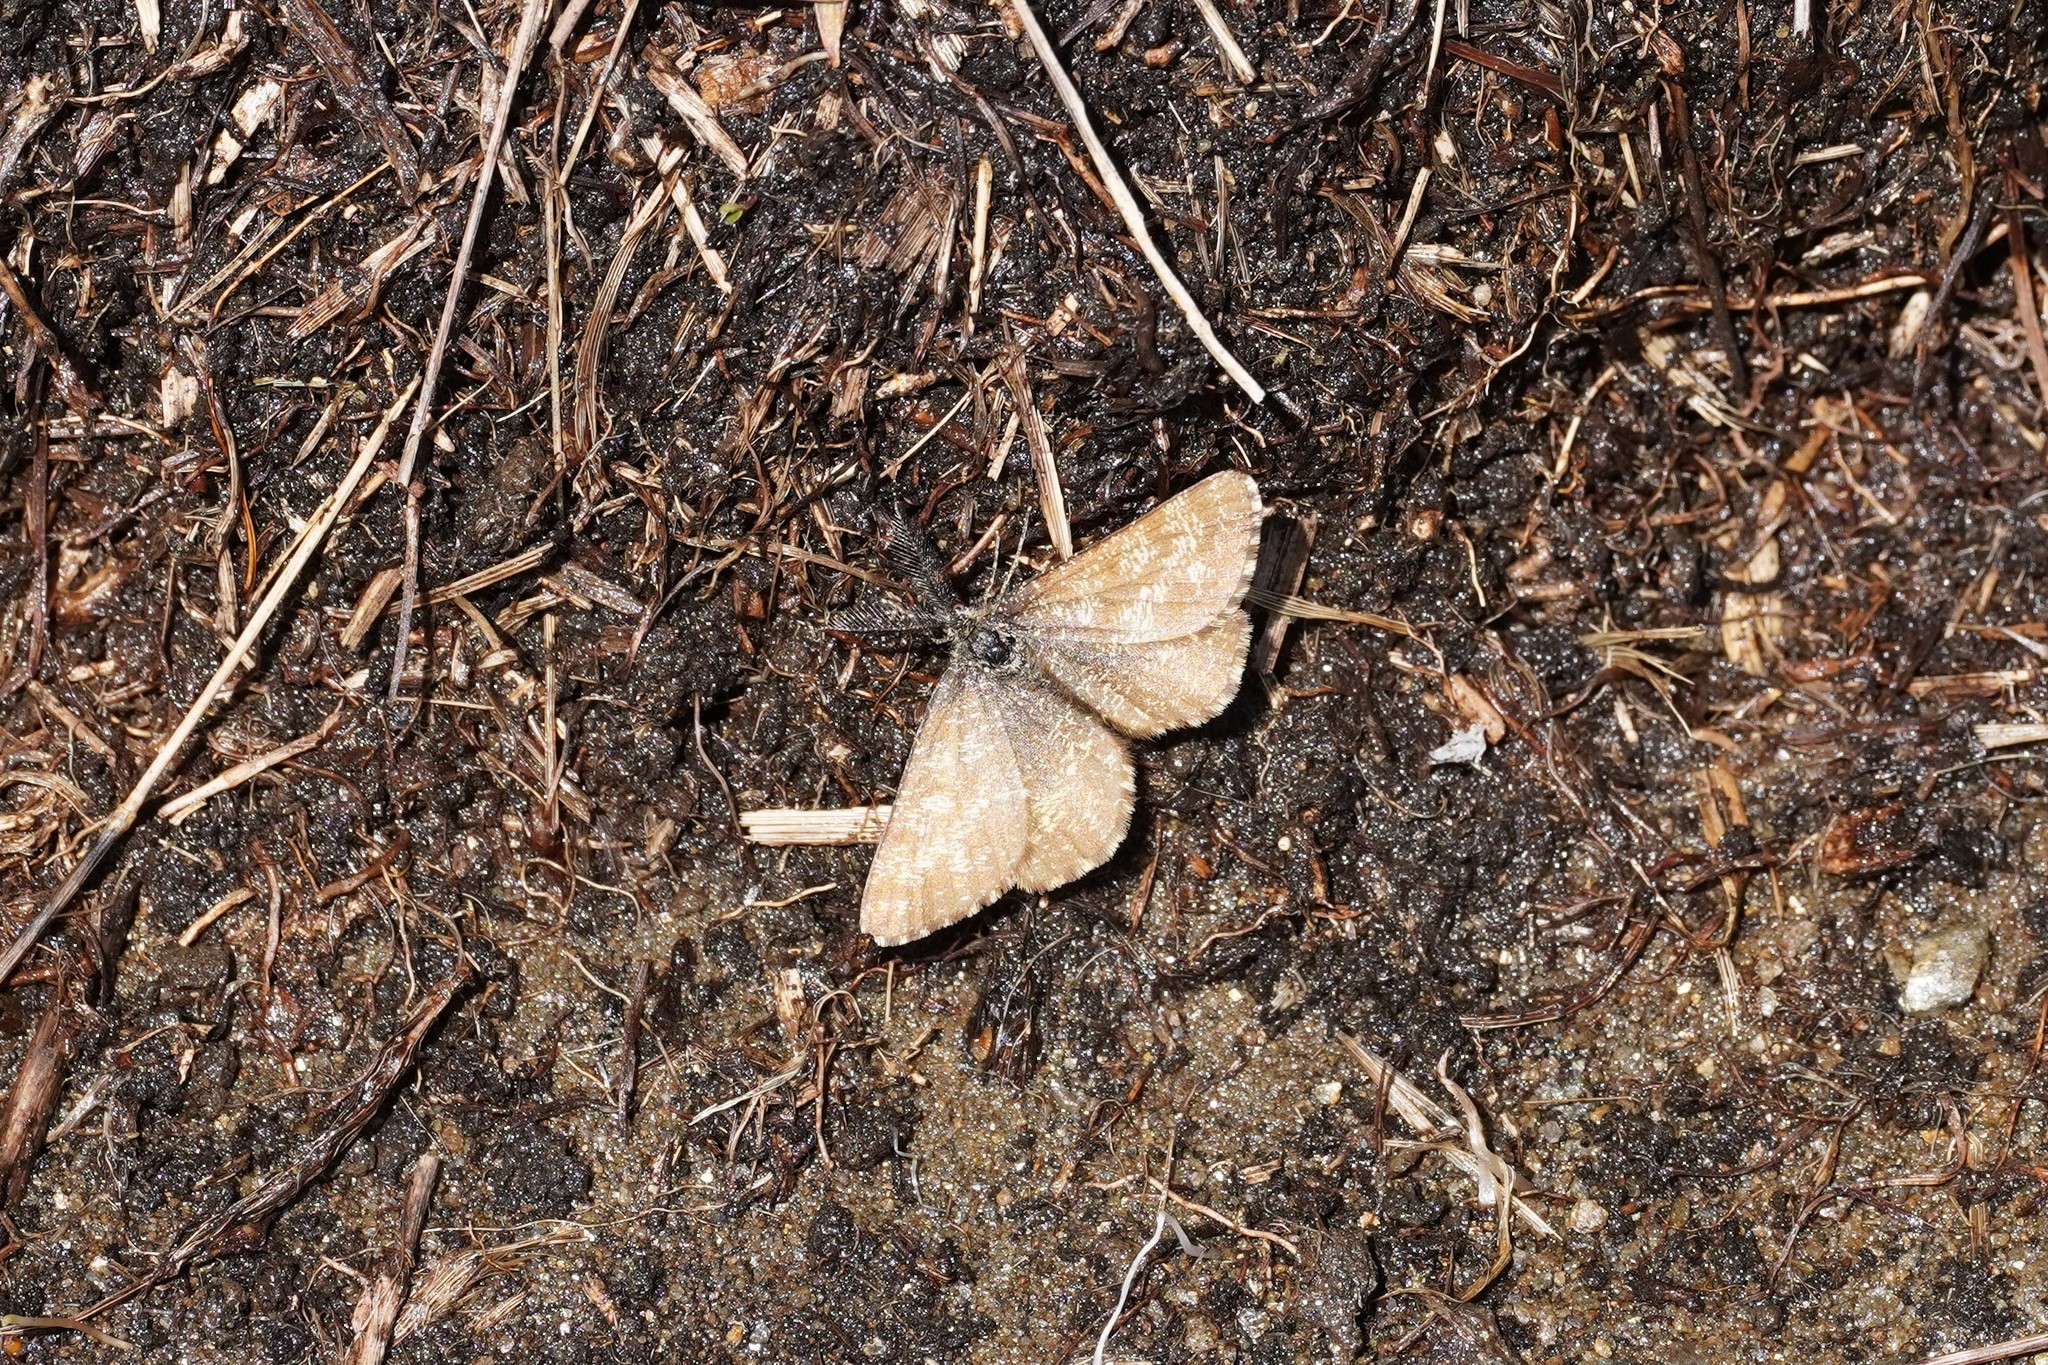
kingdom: Animalia
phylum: Arthropoda
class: Insecta
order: Lepidoptera
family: Geometridae
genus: Ematurga
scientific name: Ematurga atomaria
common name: Common heath
